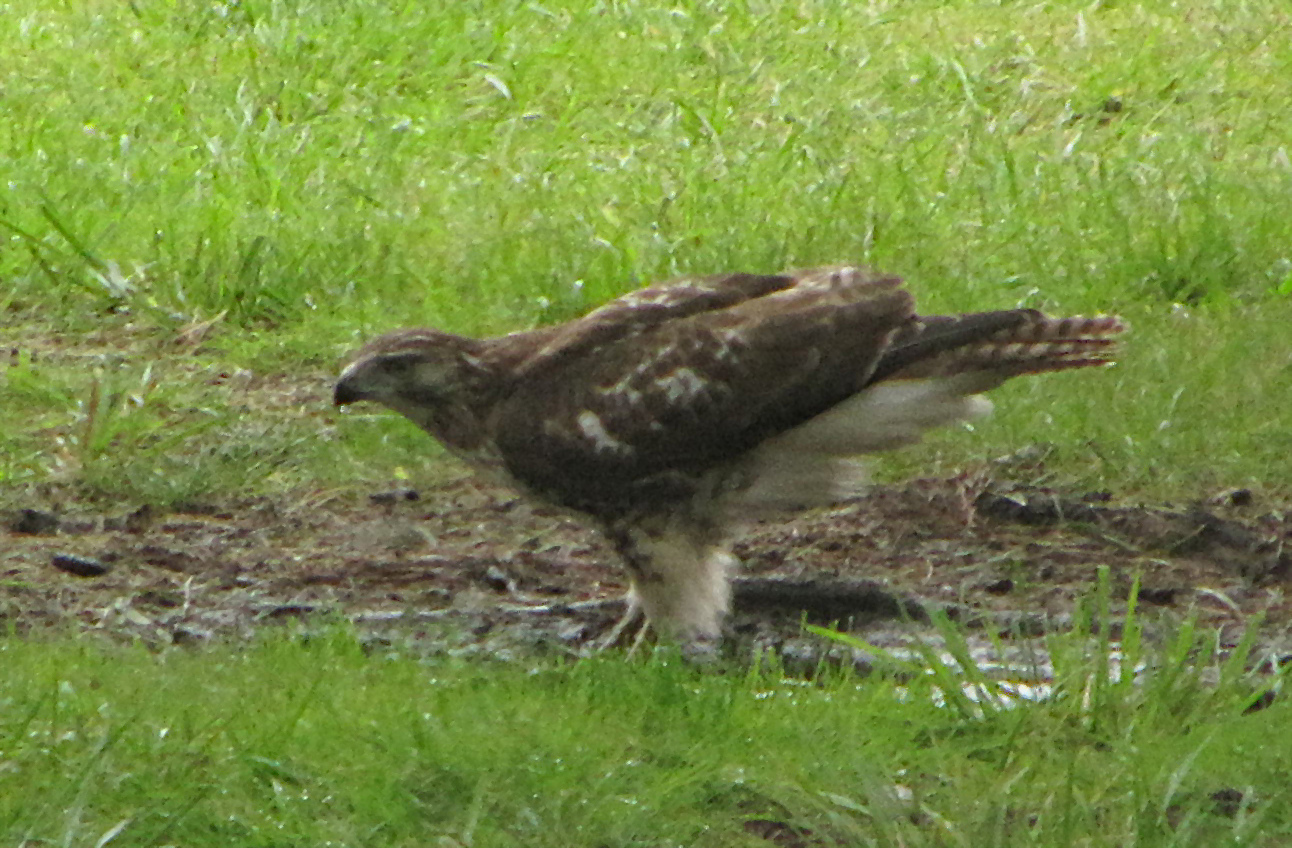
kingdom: Animalia
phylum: Chordata
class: Aves
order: Accipitriformes
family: Accipitridae
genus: Buteo
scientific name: Buteo jamaicensis
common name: Red-tailed hawk
